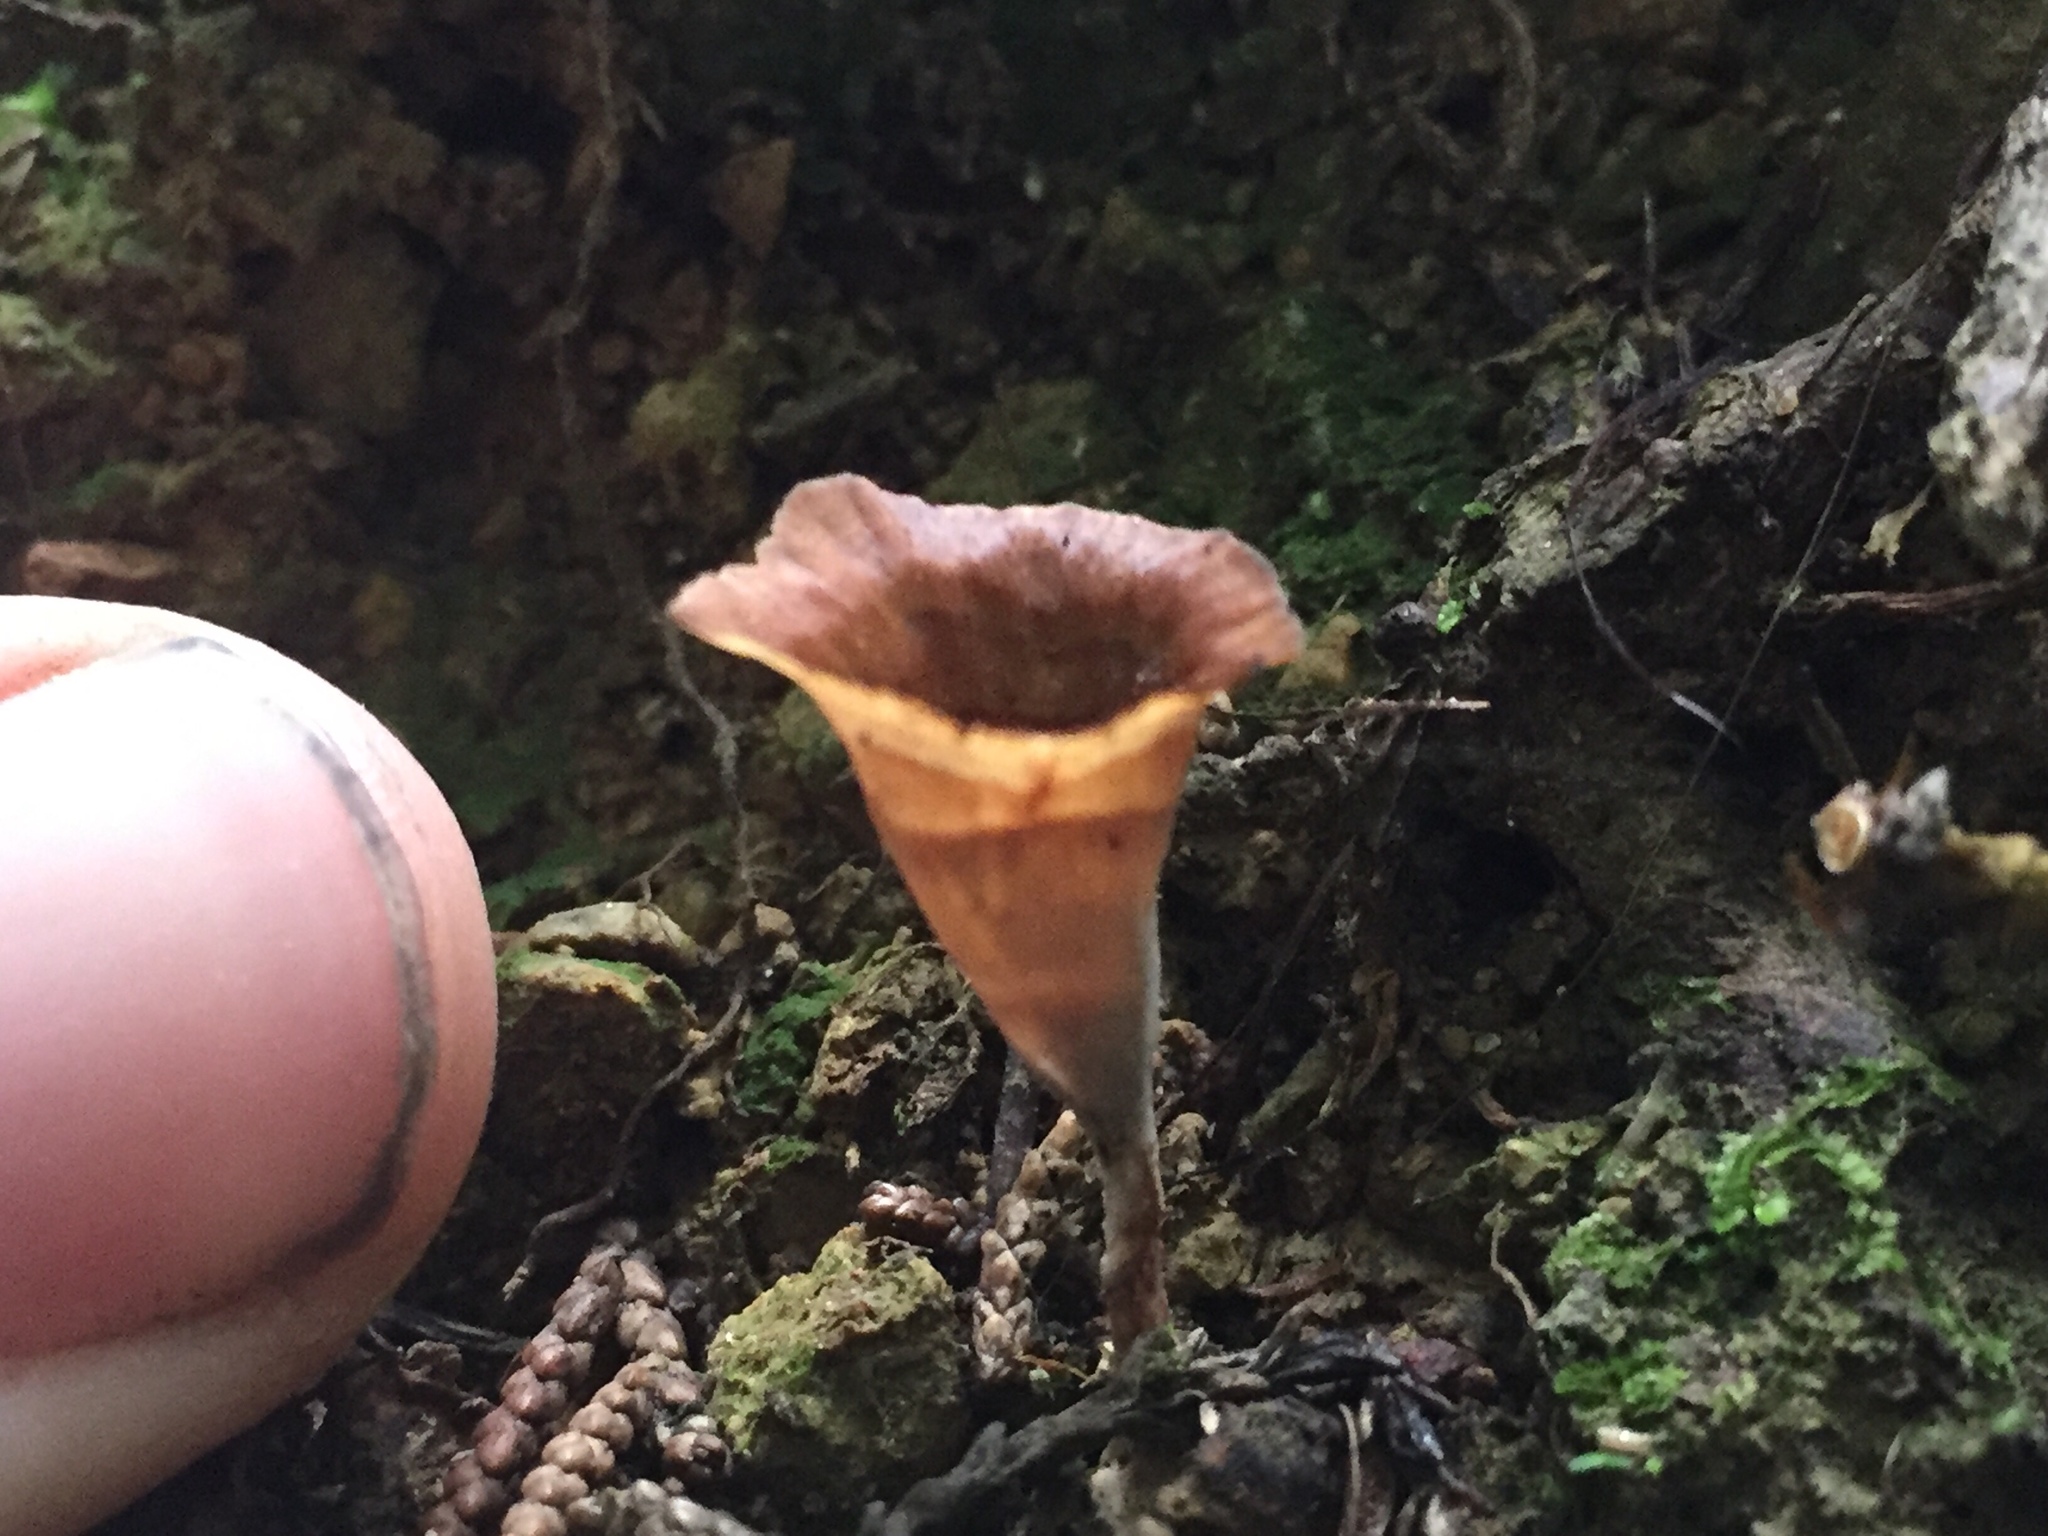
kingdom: Fungi
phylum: Basidiomycota
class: Agaricomycetes
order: Polyporales
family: Podoscyphaceae
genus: Podoscypha
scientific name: Podoscypha petalodes
